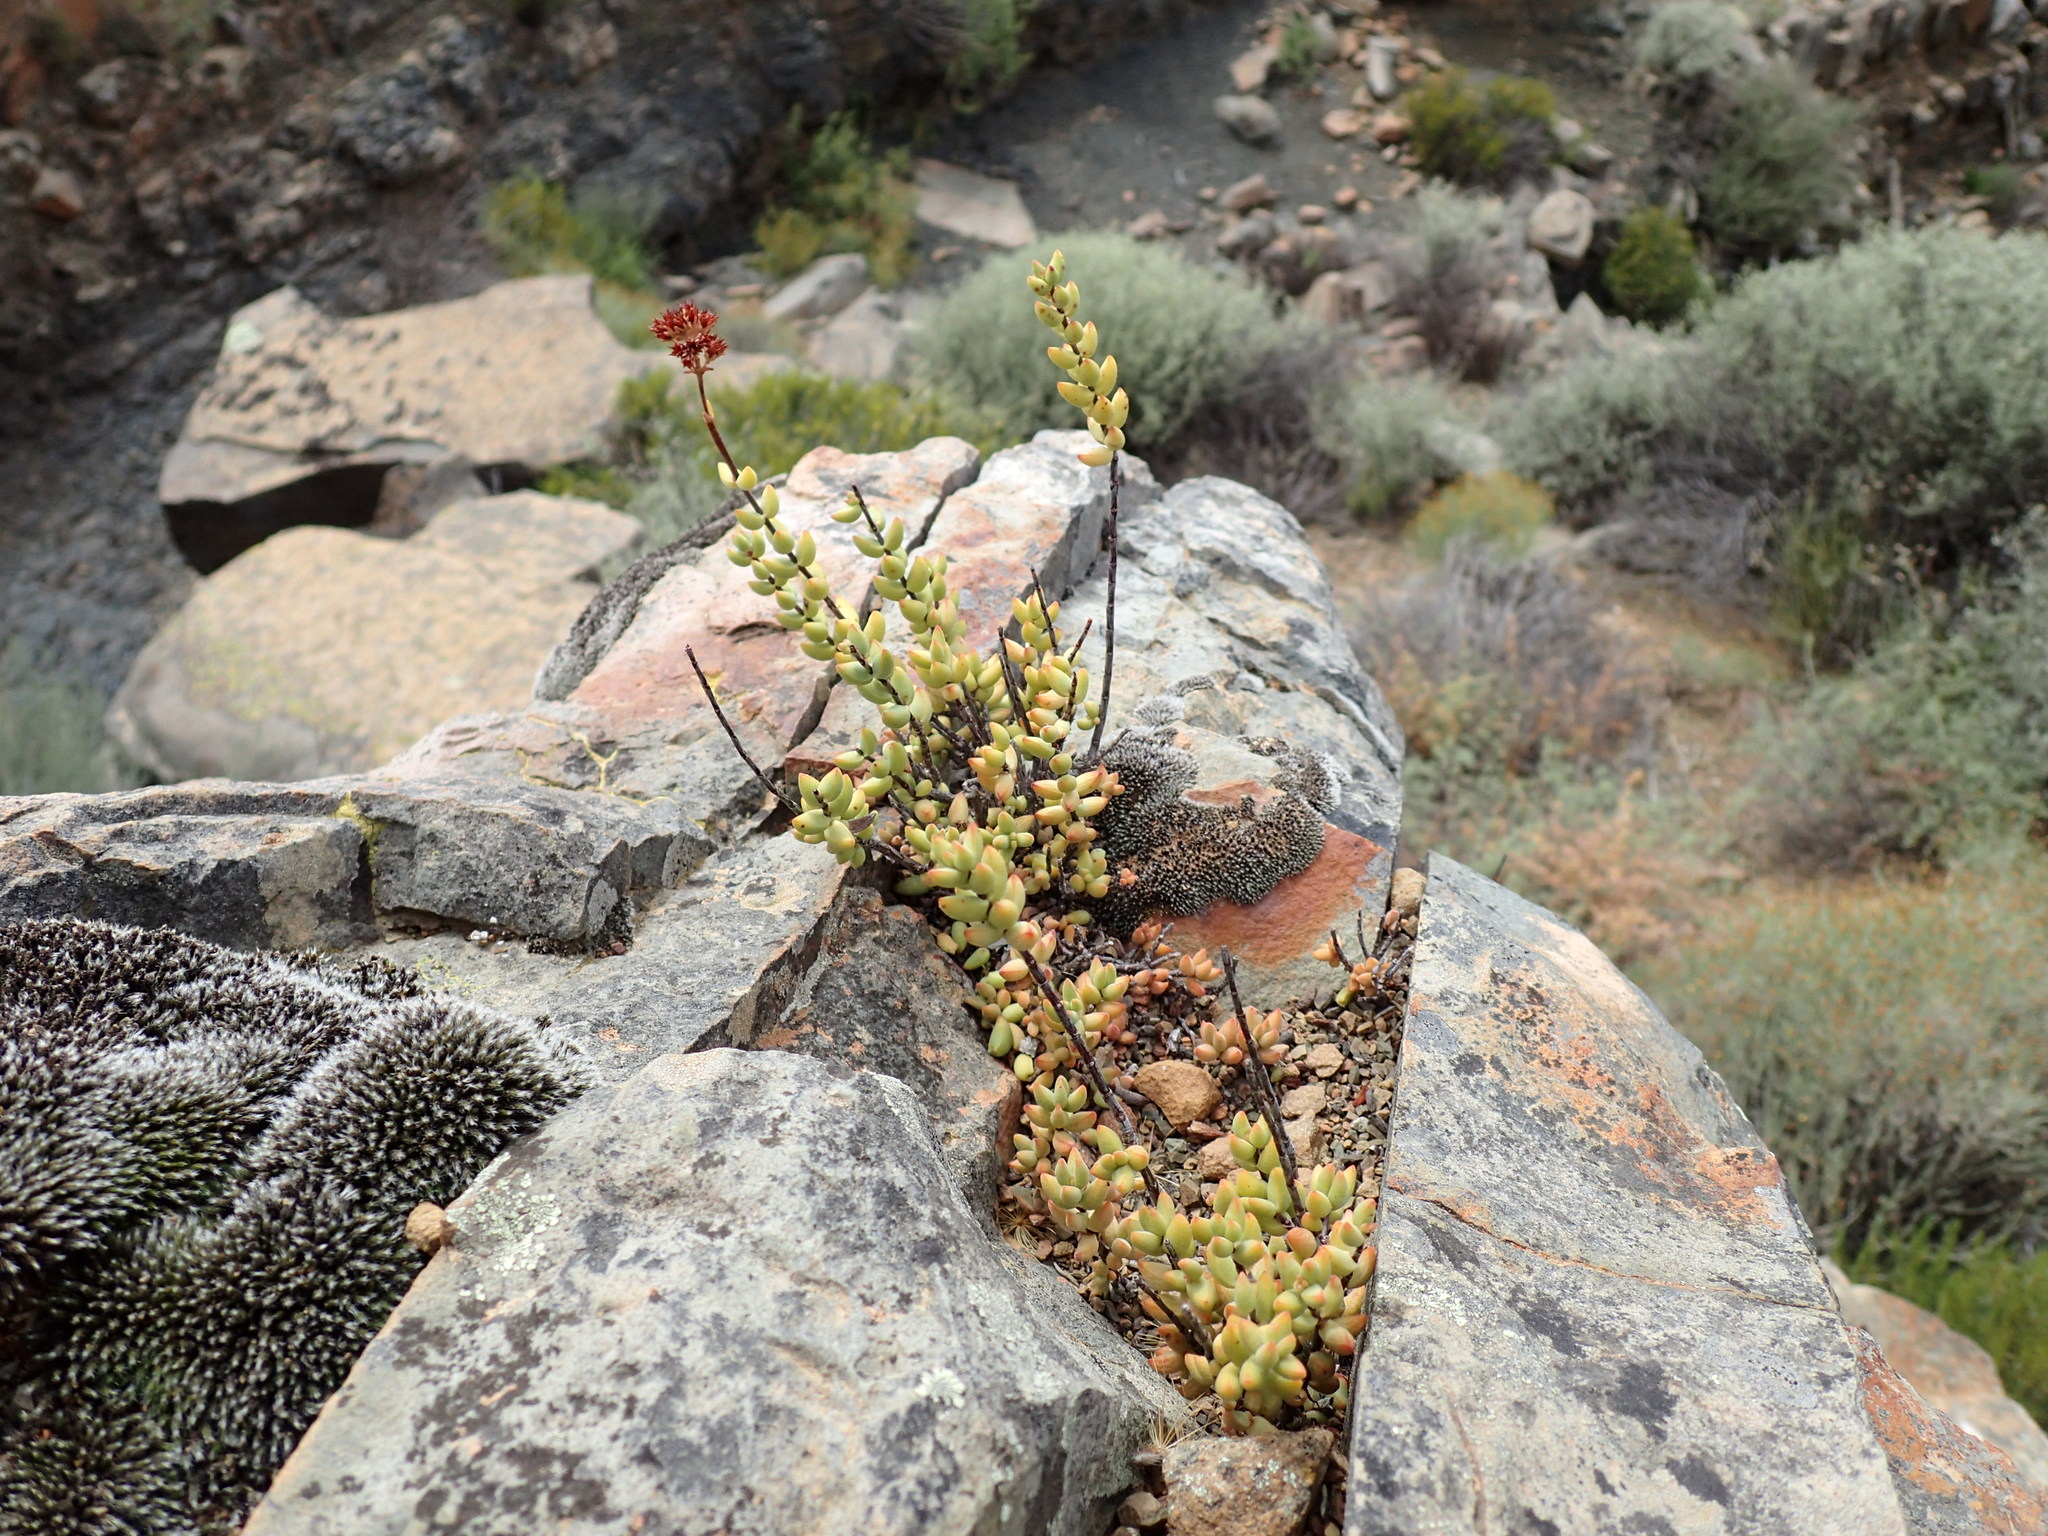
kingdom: Plantae
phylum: Tracheophyta
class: Magnoliopsida
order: Saxifragales
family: Crassulaceae
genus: Crassula
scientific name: Crassula subaphylla
